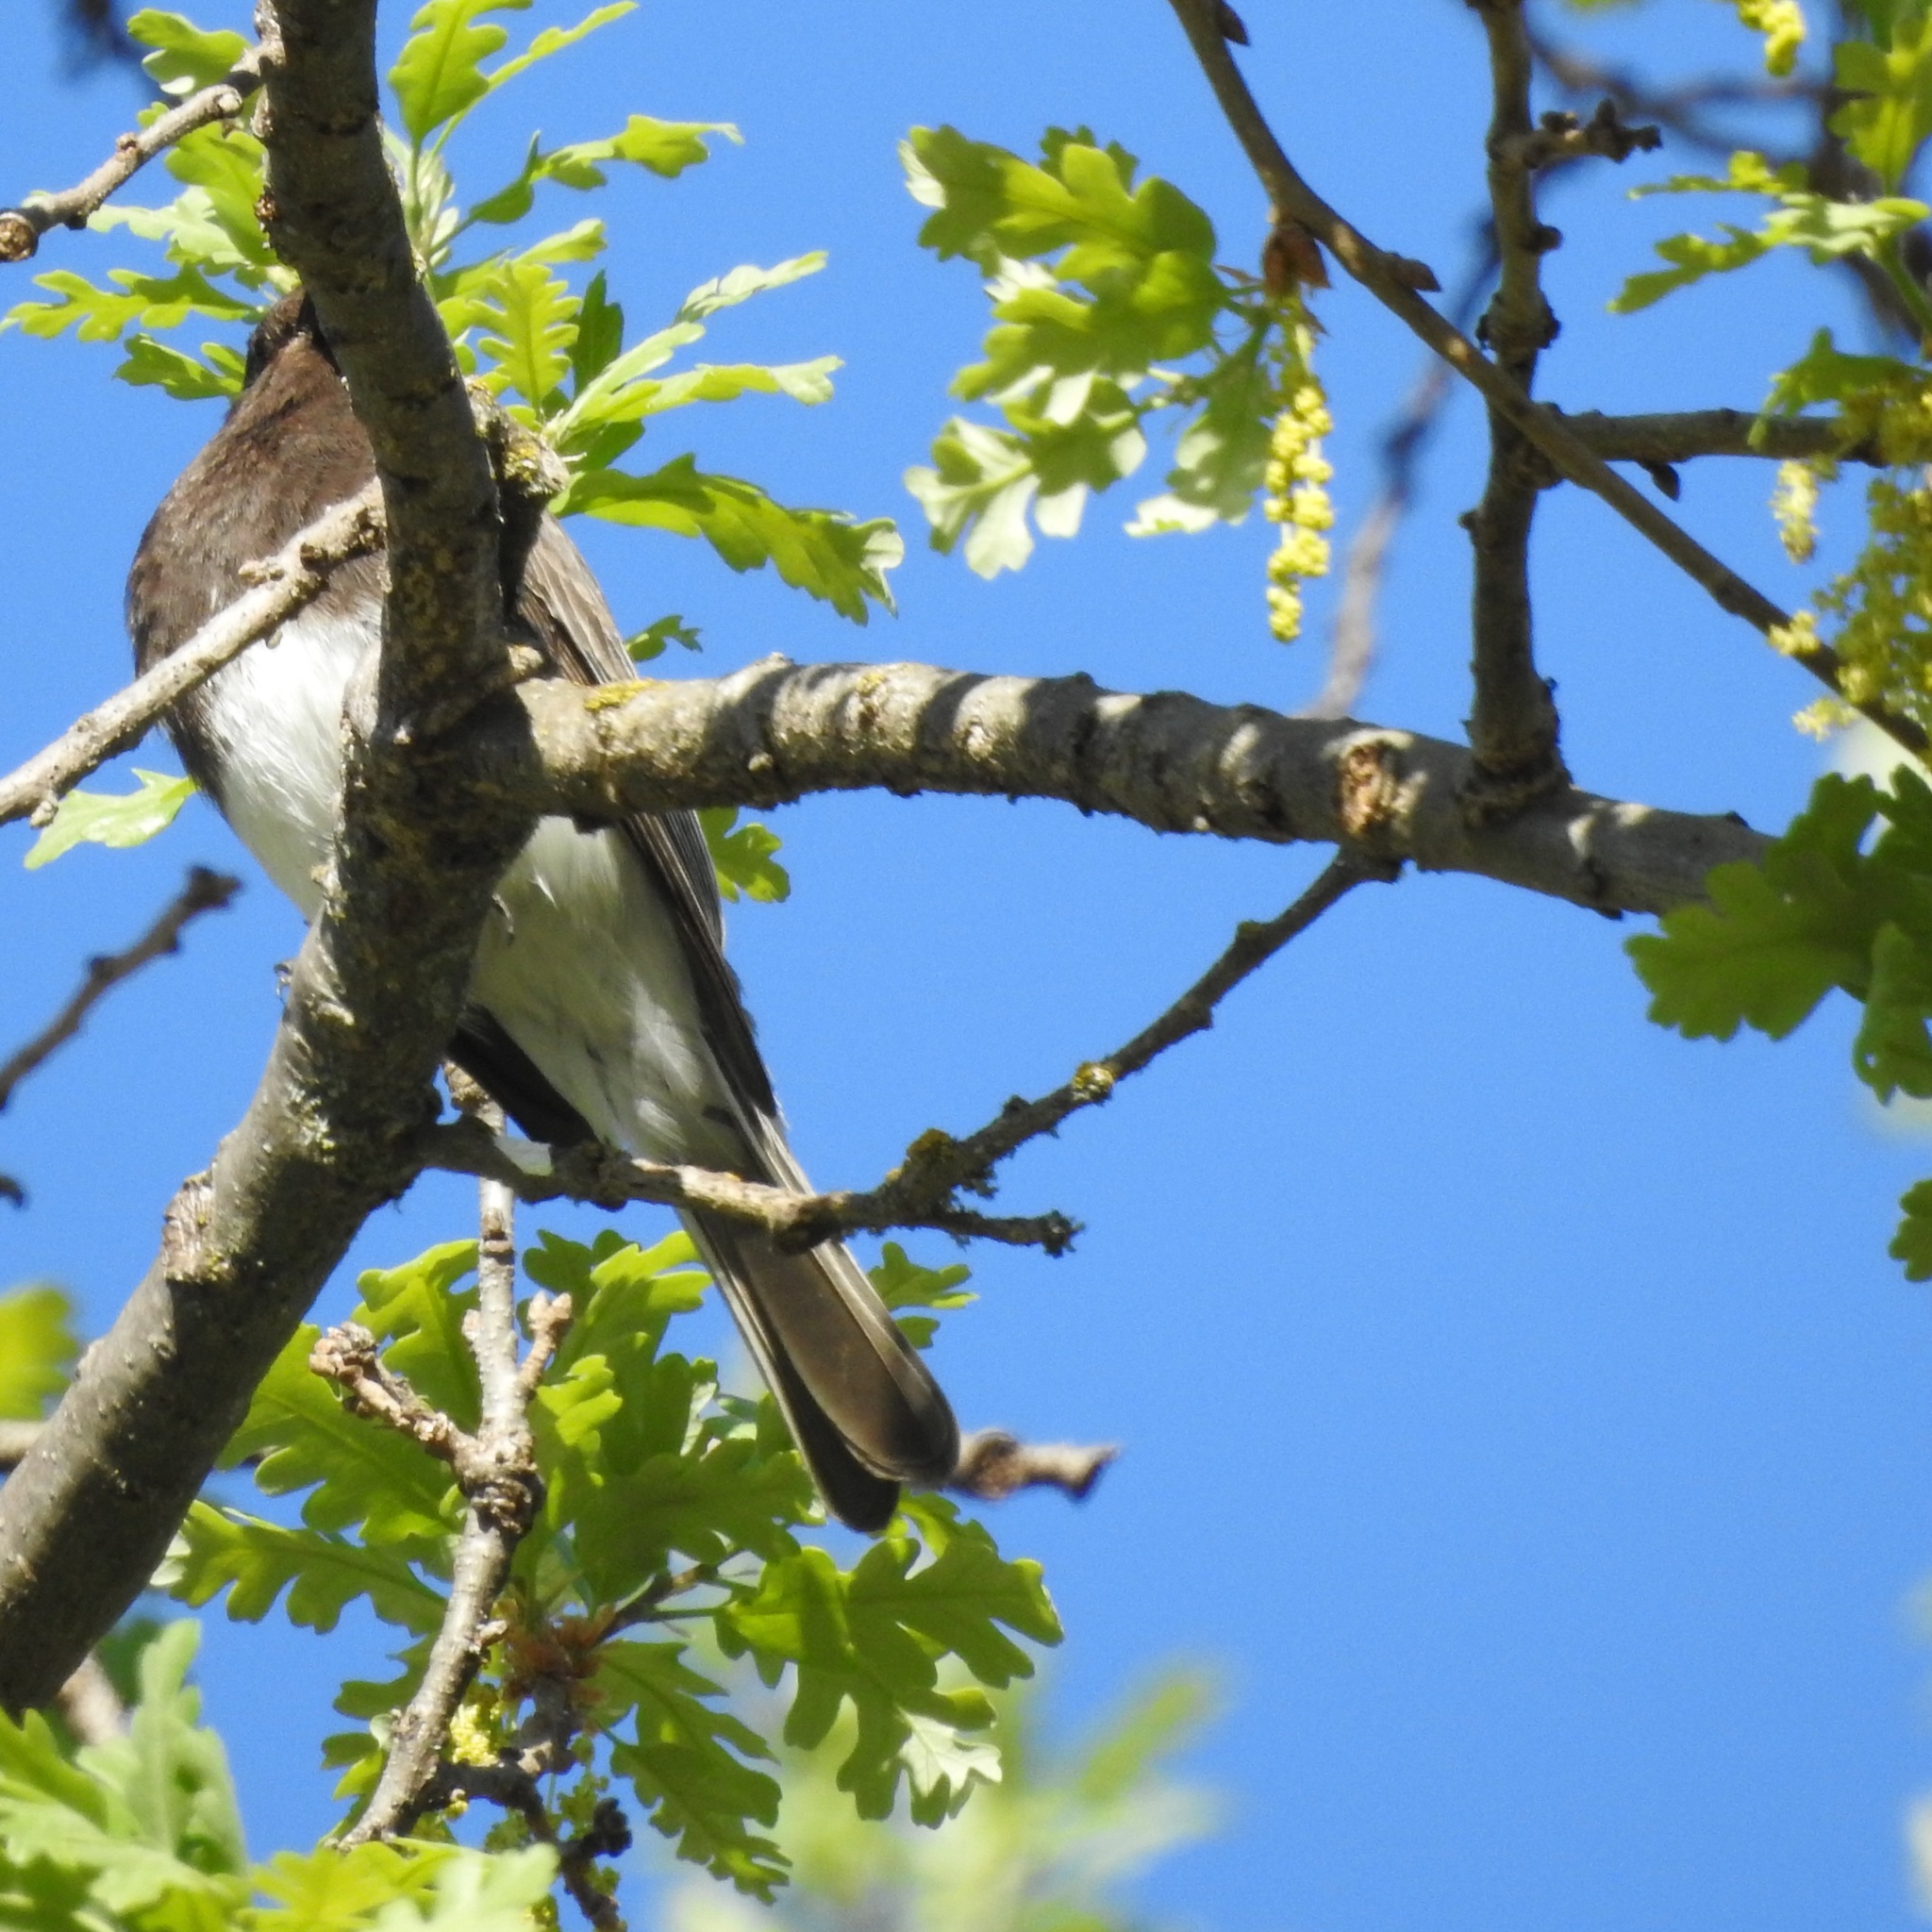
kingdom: Animalia
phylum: Chordata
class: Aves
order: Passeriformes
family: Tyrannidae
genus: Sayornis
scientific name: Sayornis nigricans
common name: Black phoebe
